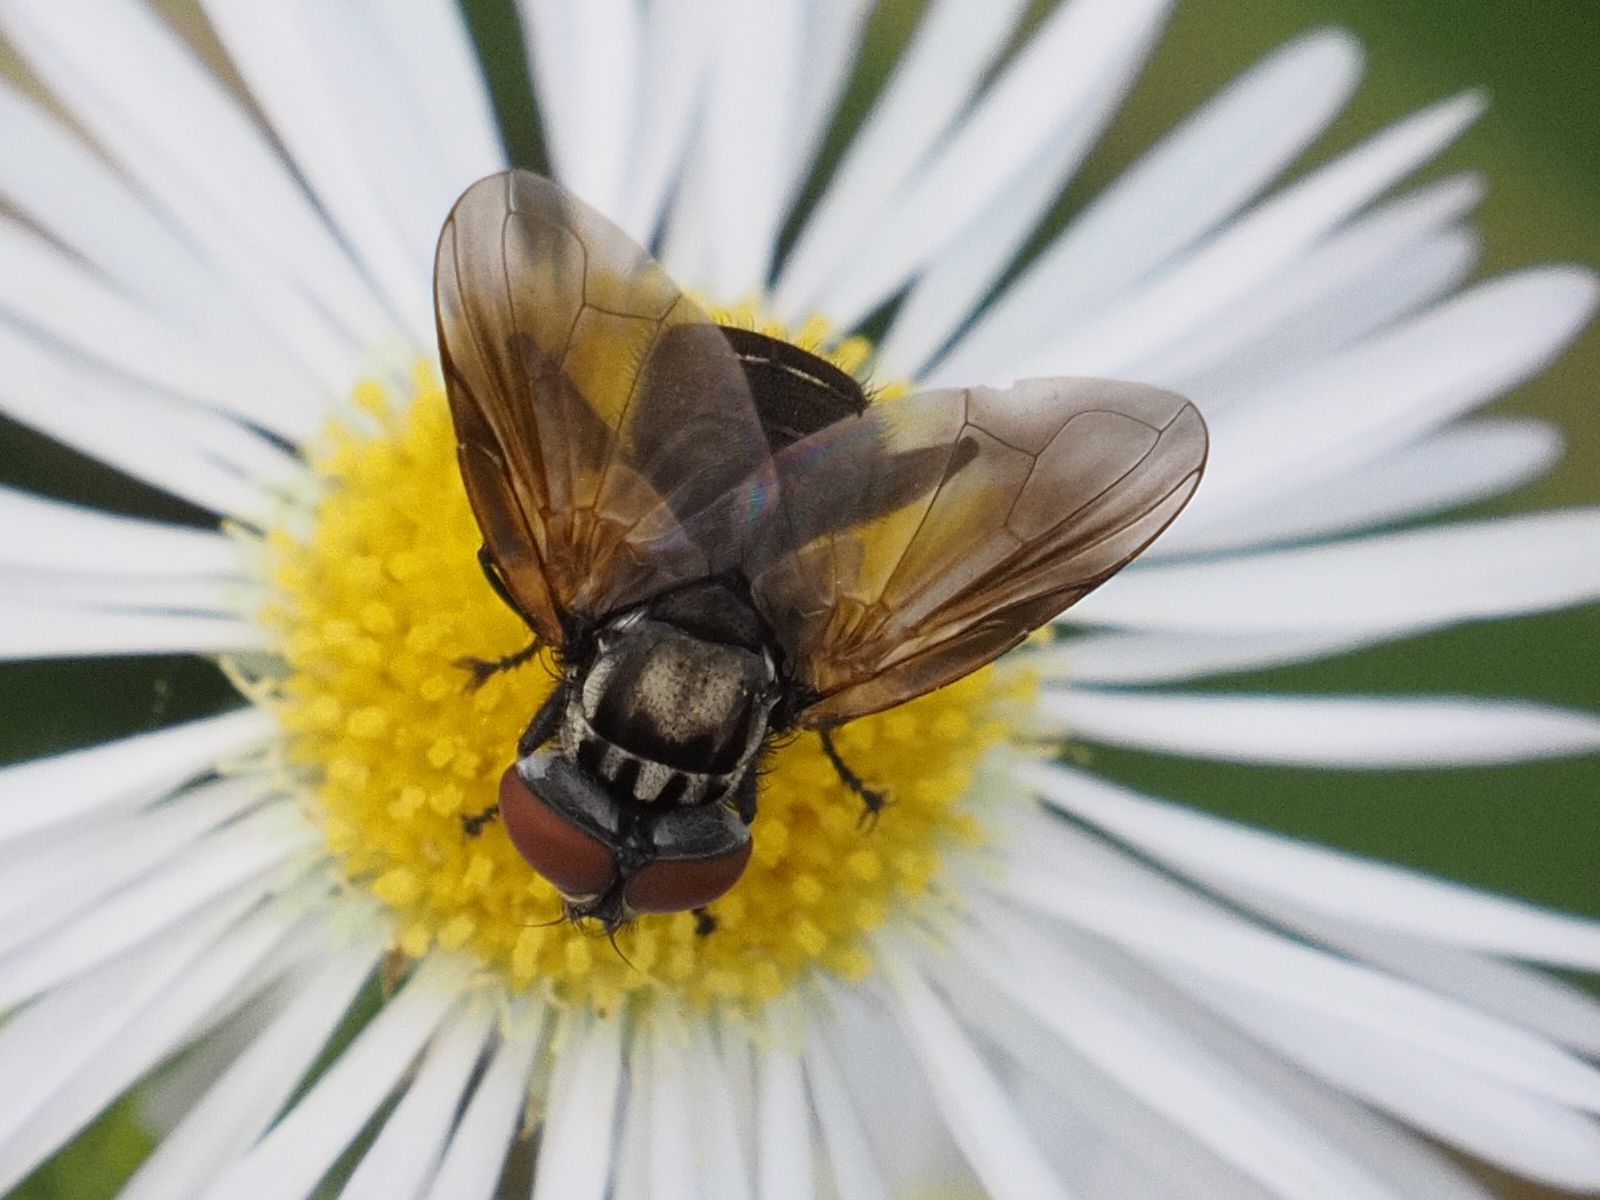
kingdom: Animalia
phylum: Arthropoda
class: Insecta
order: Diptera
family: Tachinidae
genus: Phasia
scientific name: Phasia obesa
